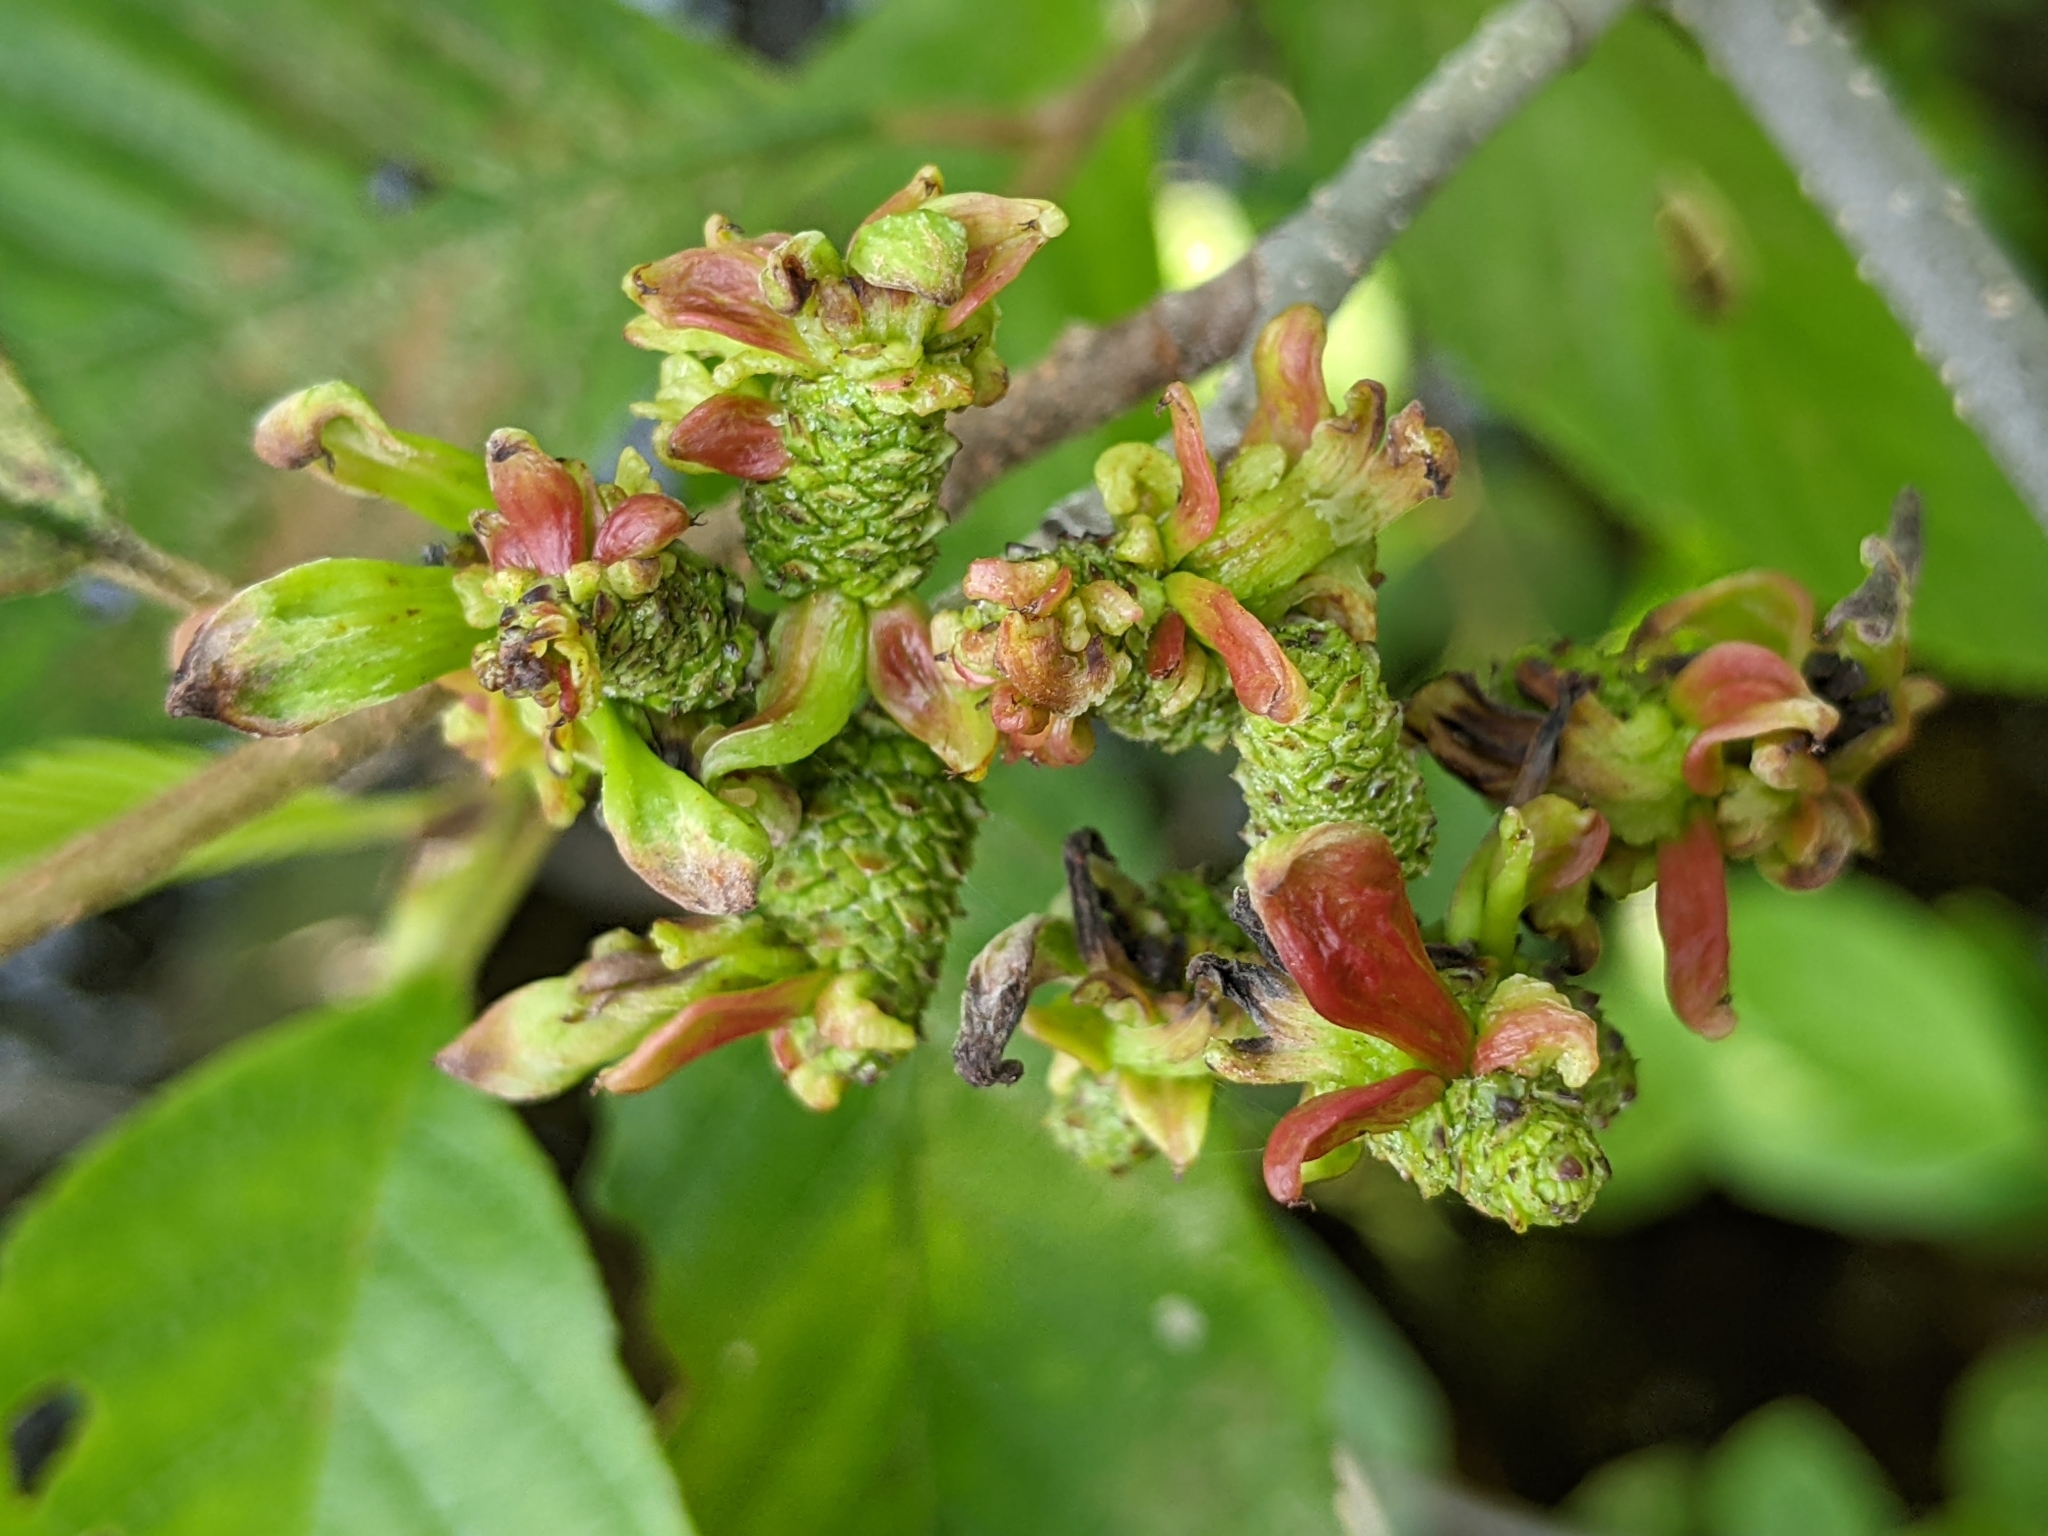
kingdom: Fungi
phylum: Ascomycota
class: Taphrinomycetes
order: Taphrinales
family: Taphrinaceae
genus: Taphrina
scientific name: Taphrina robinsoniana
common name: Eastern american alder tongue gall fungus
